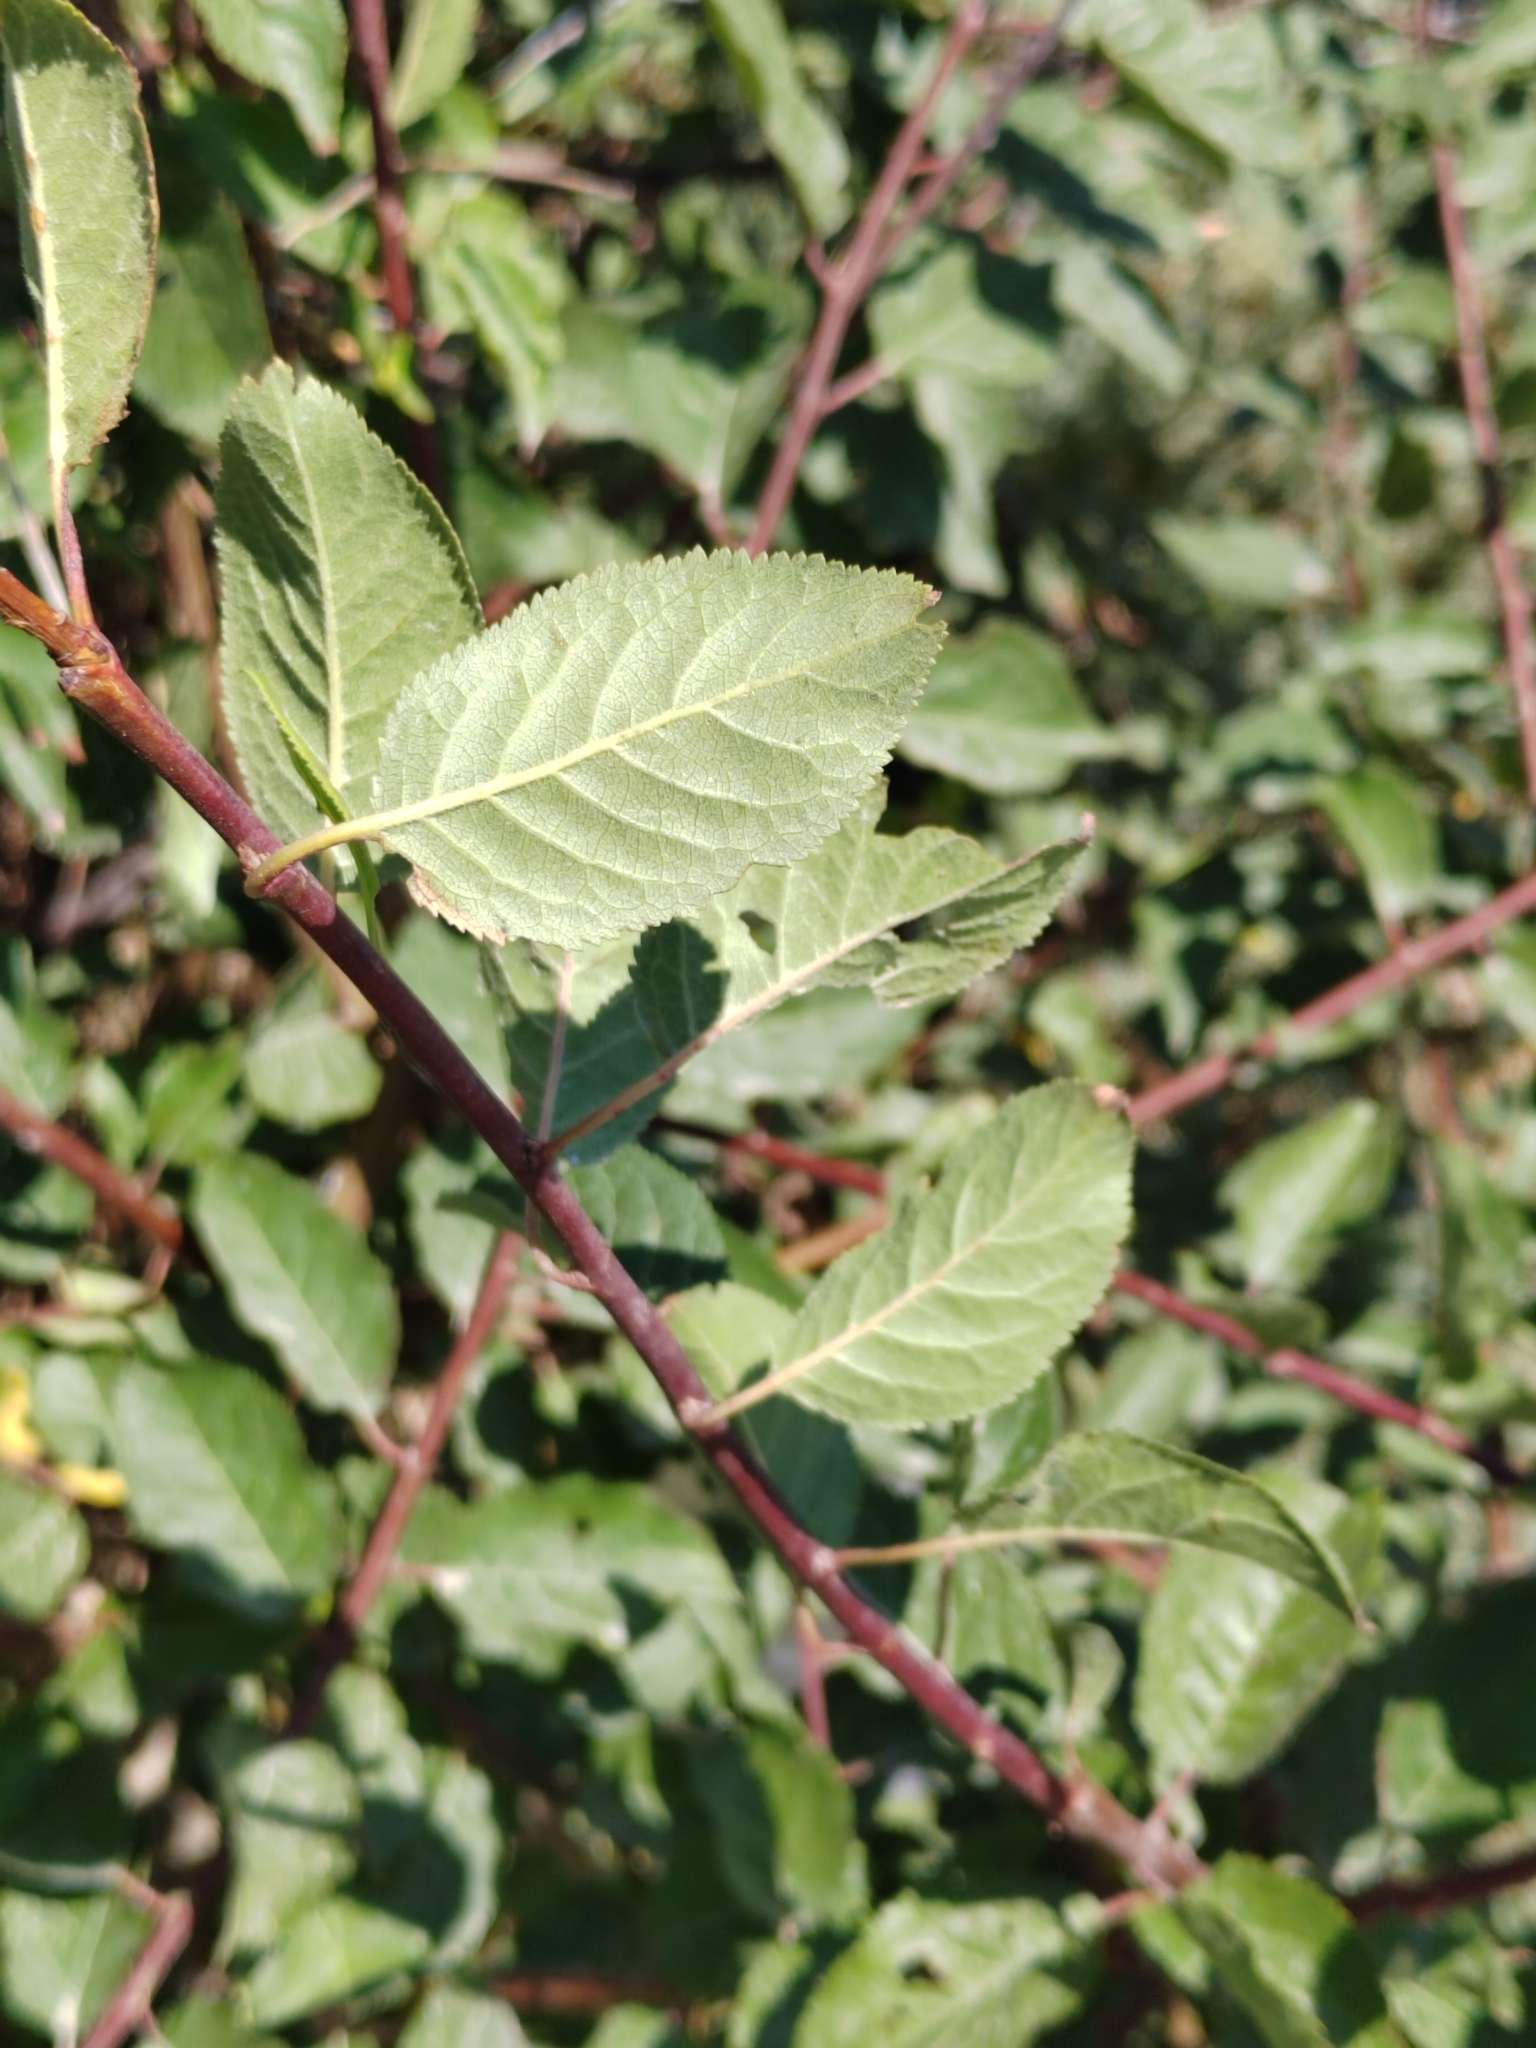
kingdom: Plantae
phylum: Tracheophyta
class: Magnoliopsida
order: Rosales
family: Rosaceae
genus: Prunus
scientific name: Prunus cerasifera
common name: Cherry plum
